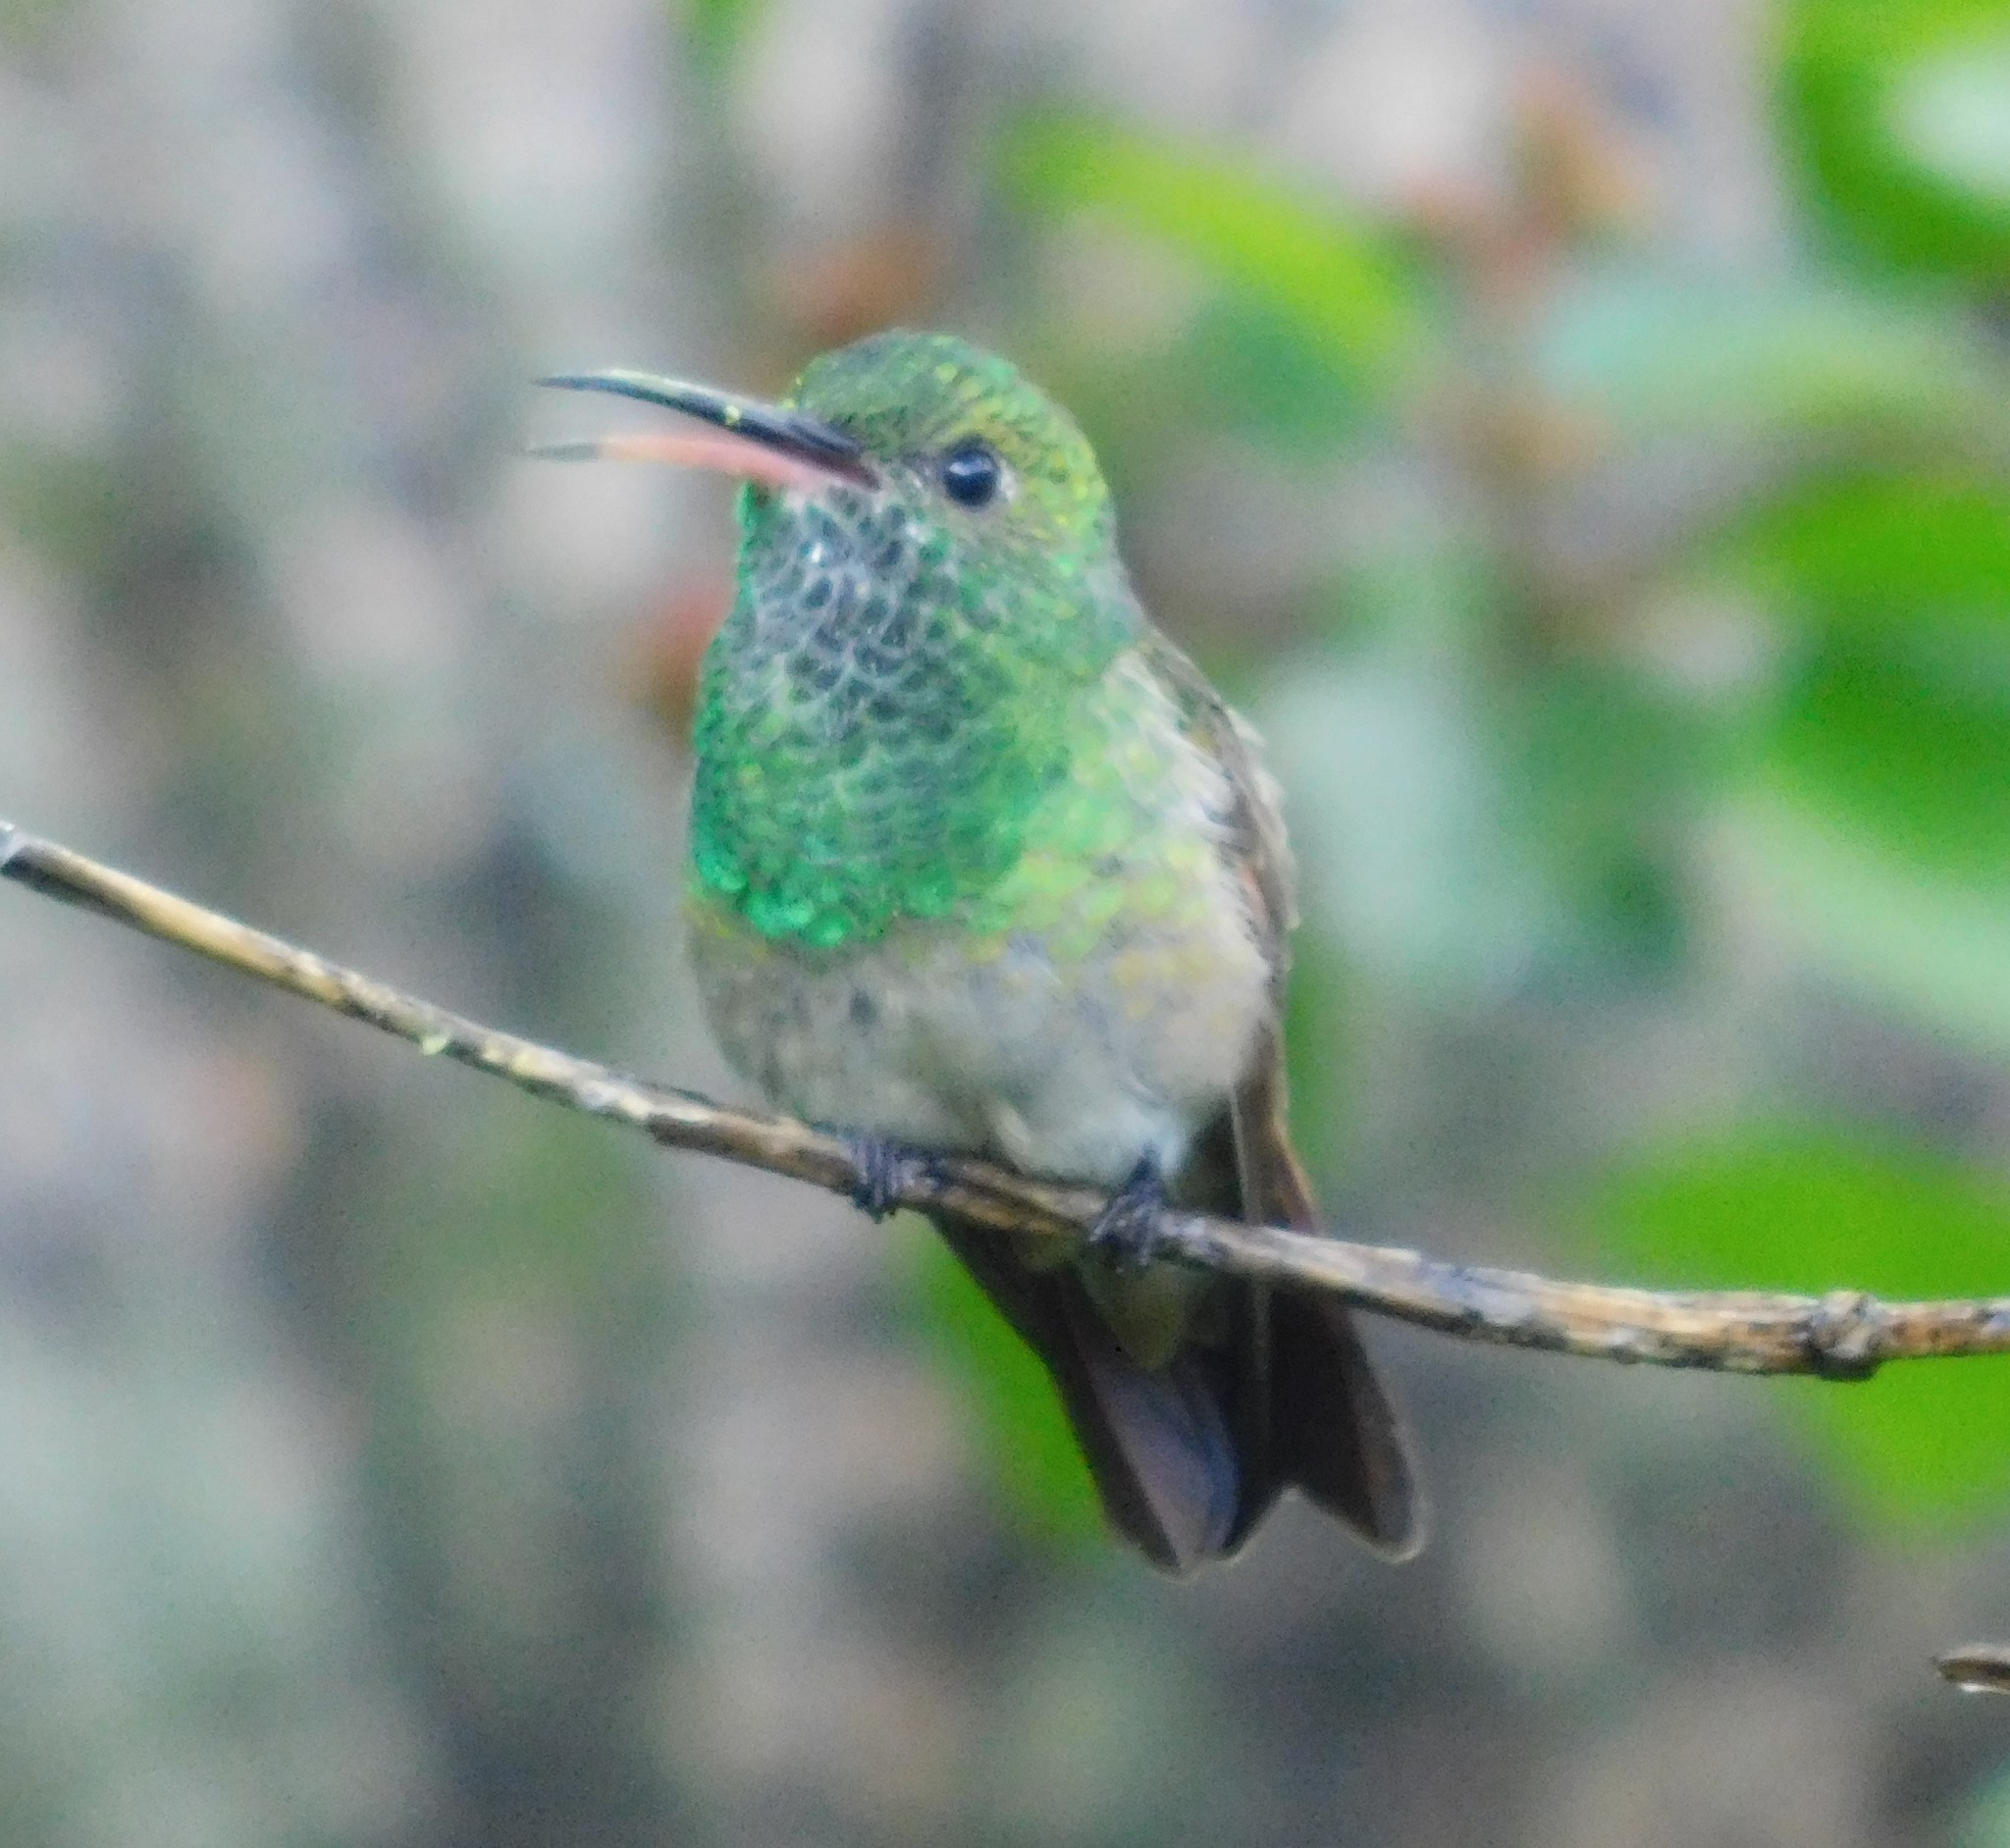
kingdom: Animalia
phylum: Chordata
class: Aves
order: Apodiformes
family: Trochilidae
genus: Saucerottia
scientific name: Saucerottia beryllina
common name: Berylline hummingbird
